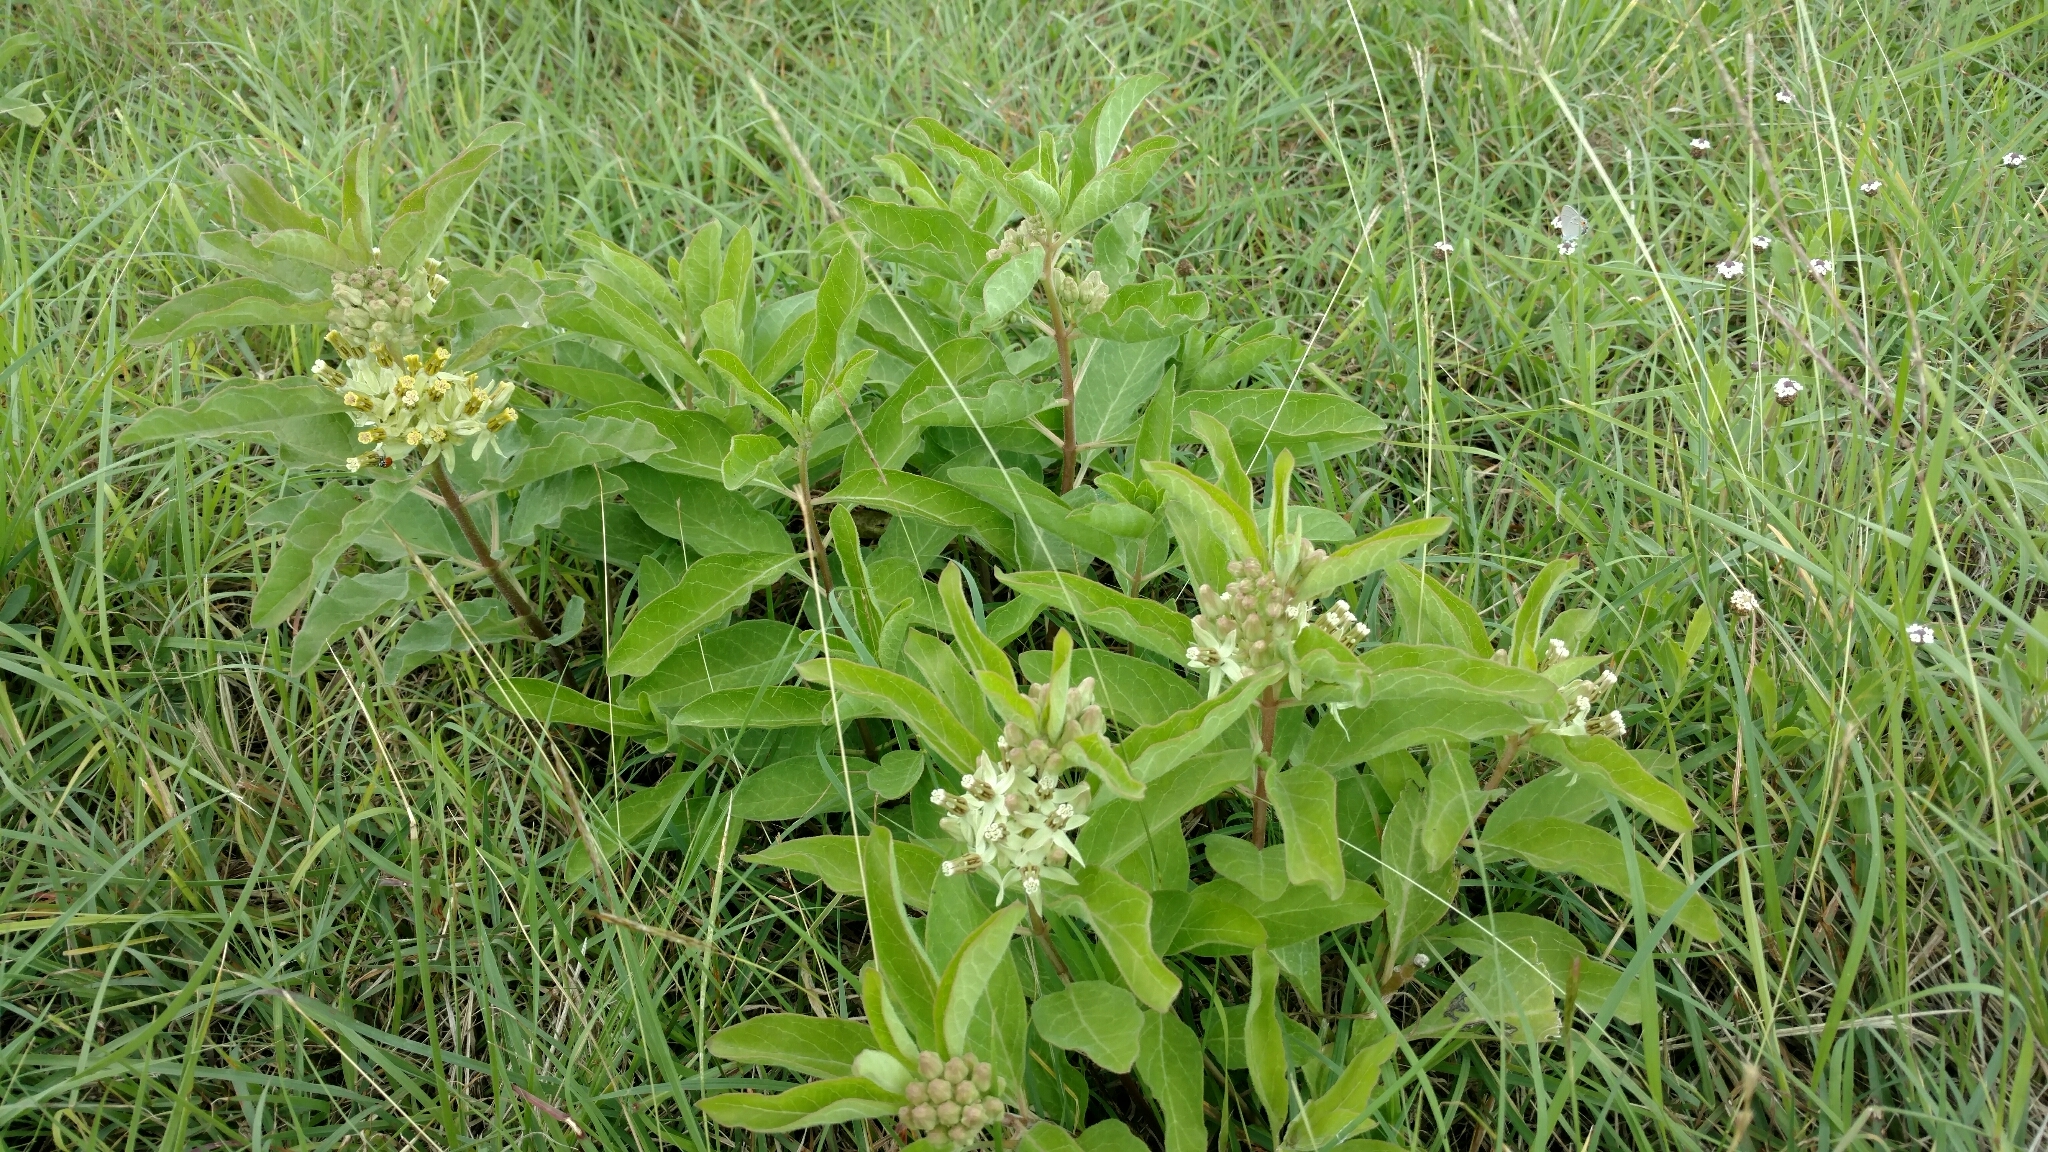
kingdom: Plantae
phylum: Tracheophyta
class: Magnoliopsida
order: Gentianales
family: Apocynaceae
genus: Asclepias
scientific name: Asclepias oenotheroides
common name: Zizotes milkweed
